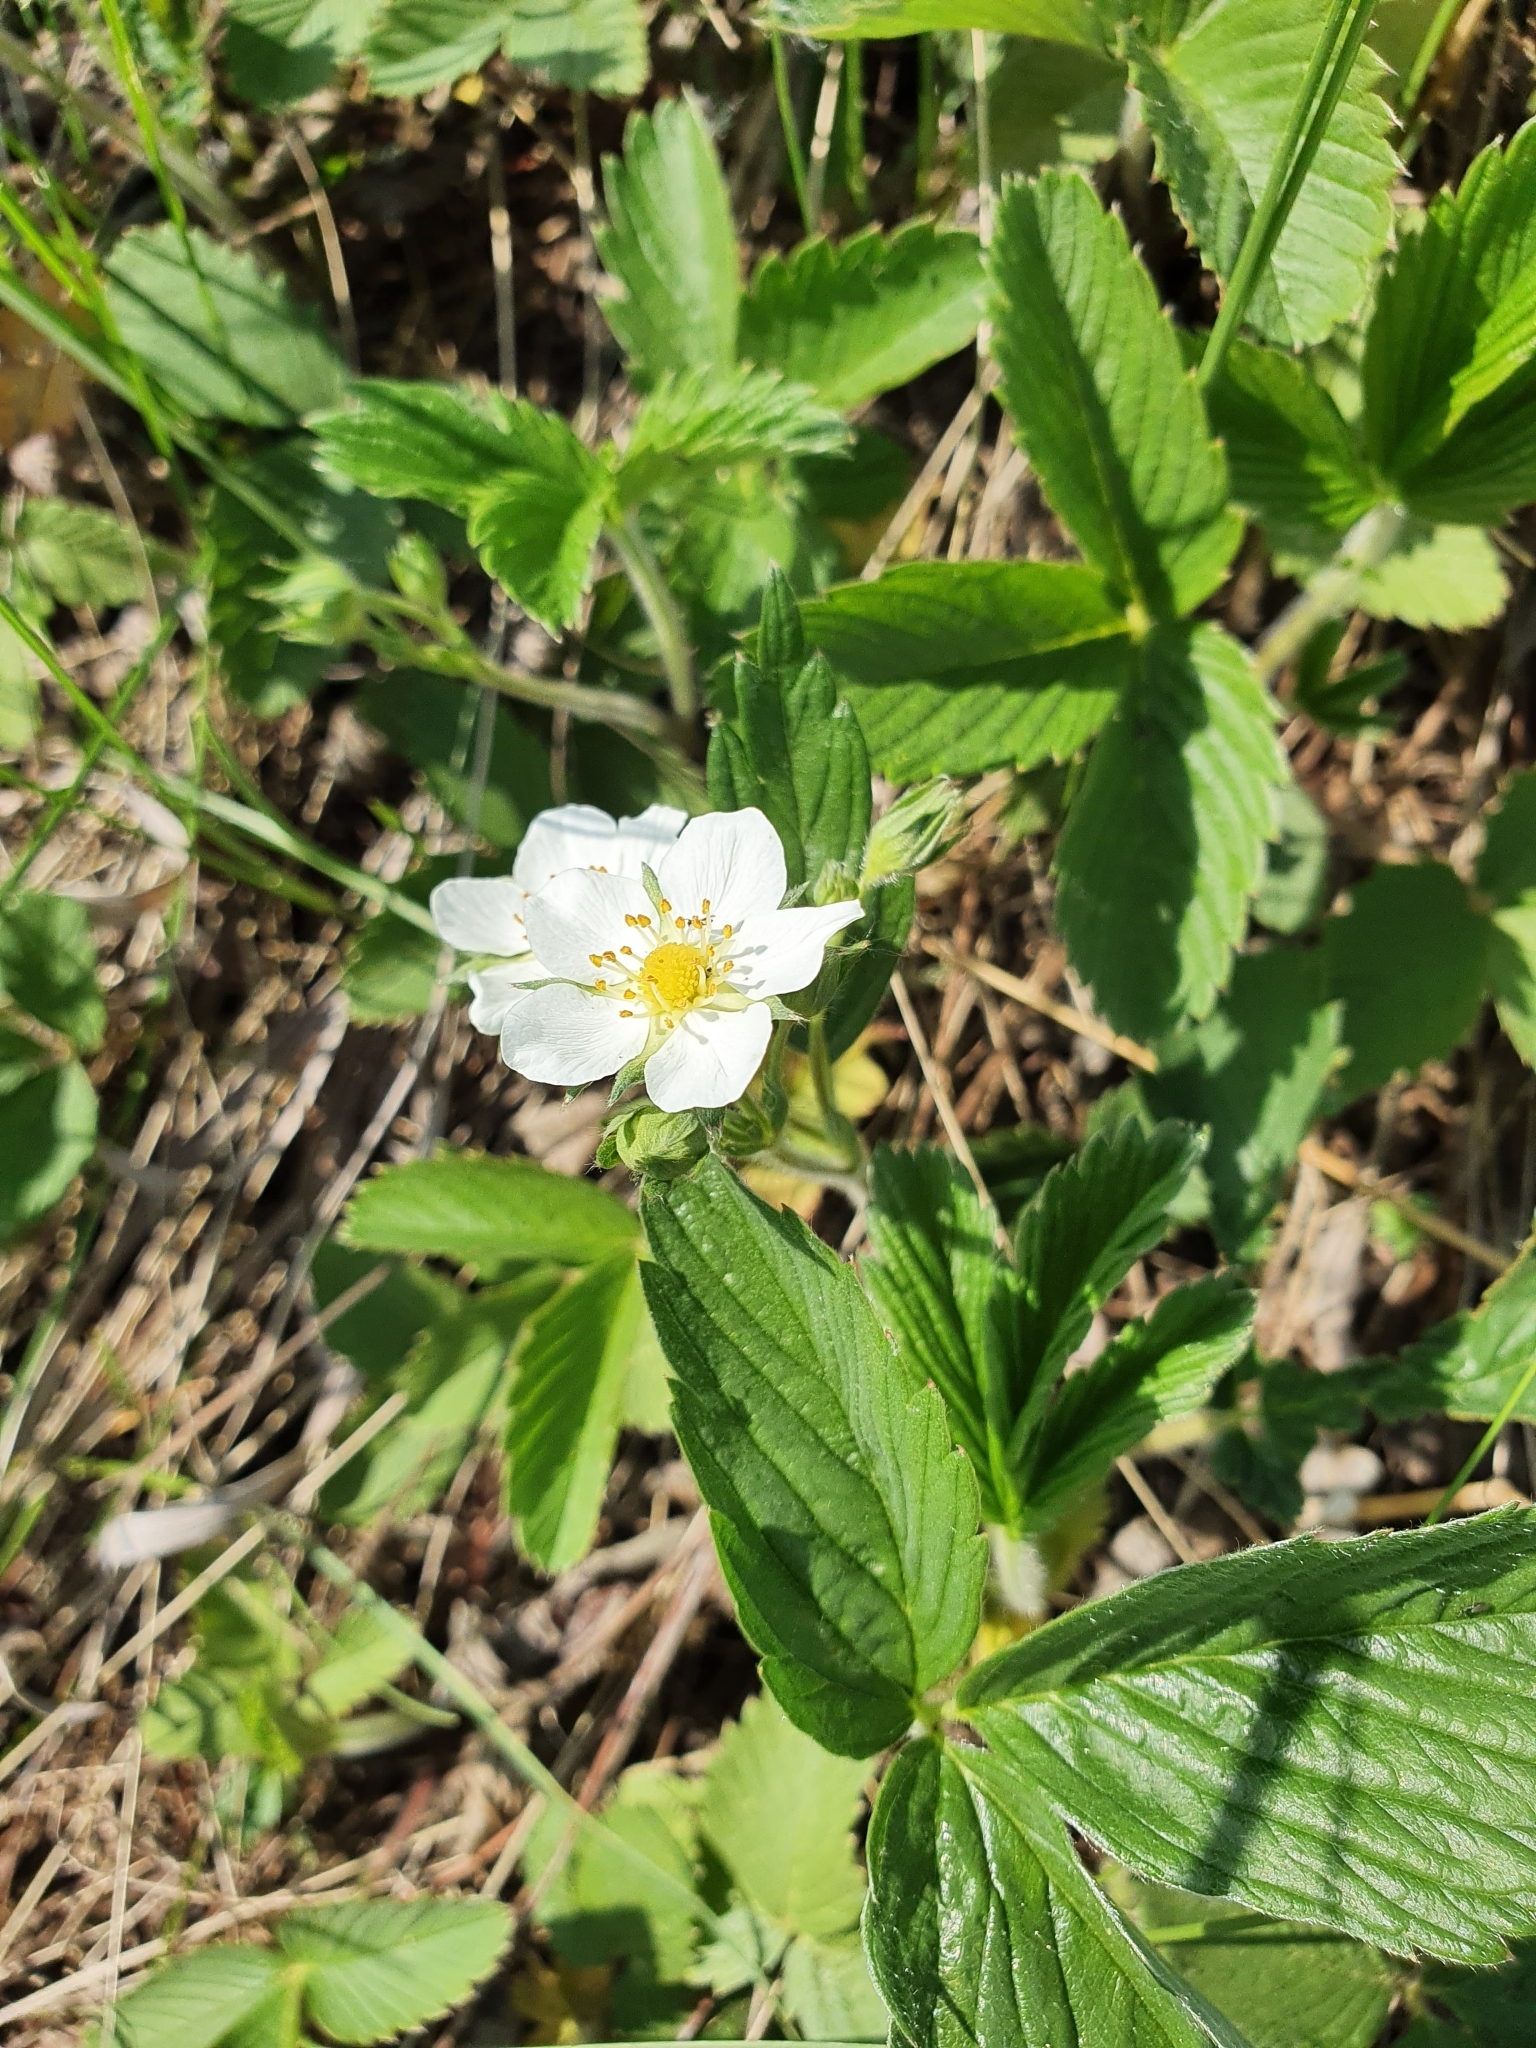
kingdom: Plantae
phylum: Tracheophyta
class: Magnoliopsida
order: Rosales
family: Rosaceae
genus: Fragaria
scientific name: Fragaria viridis
